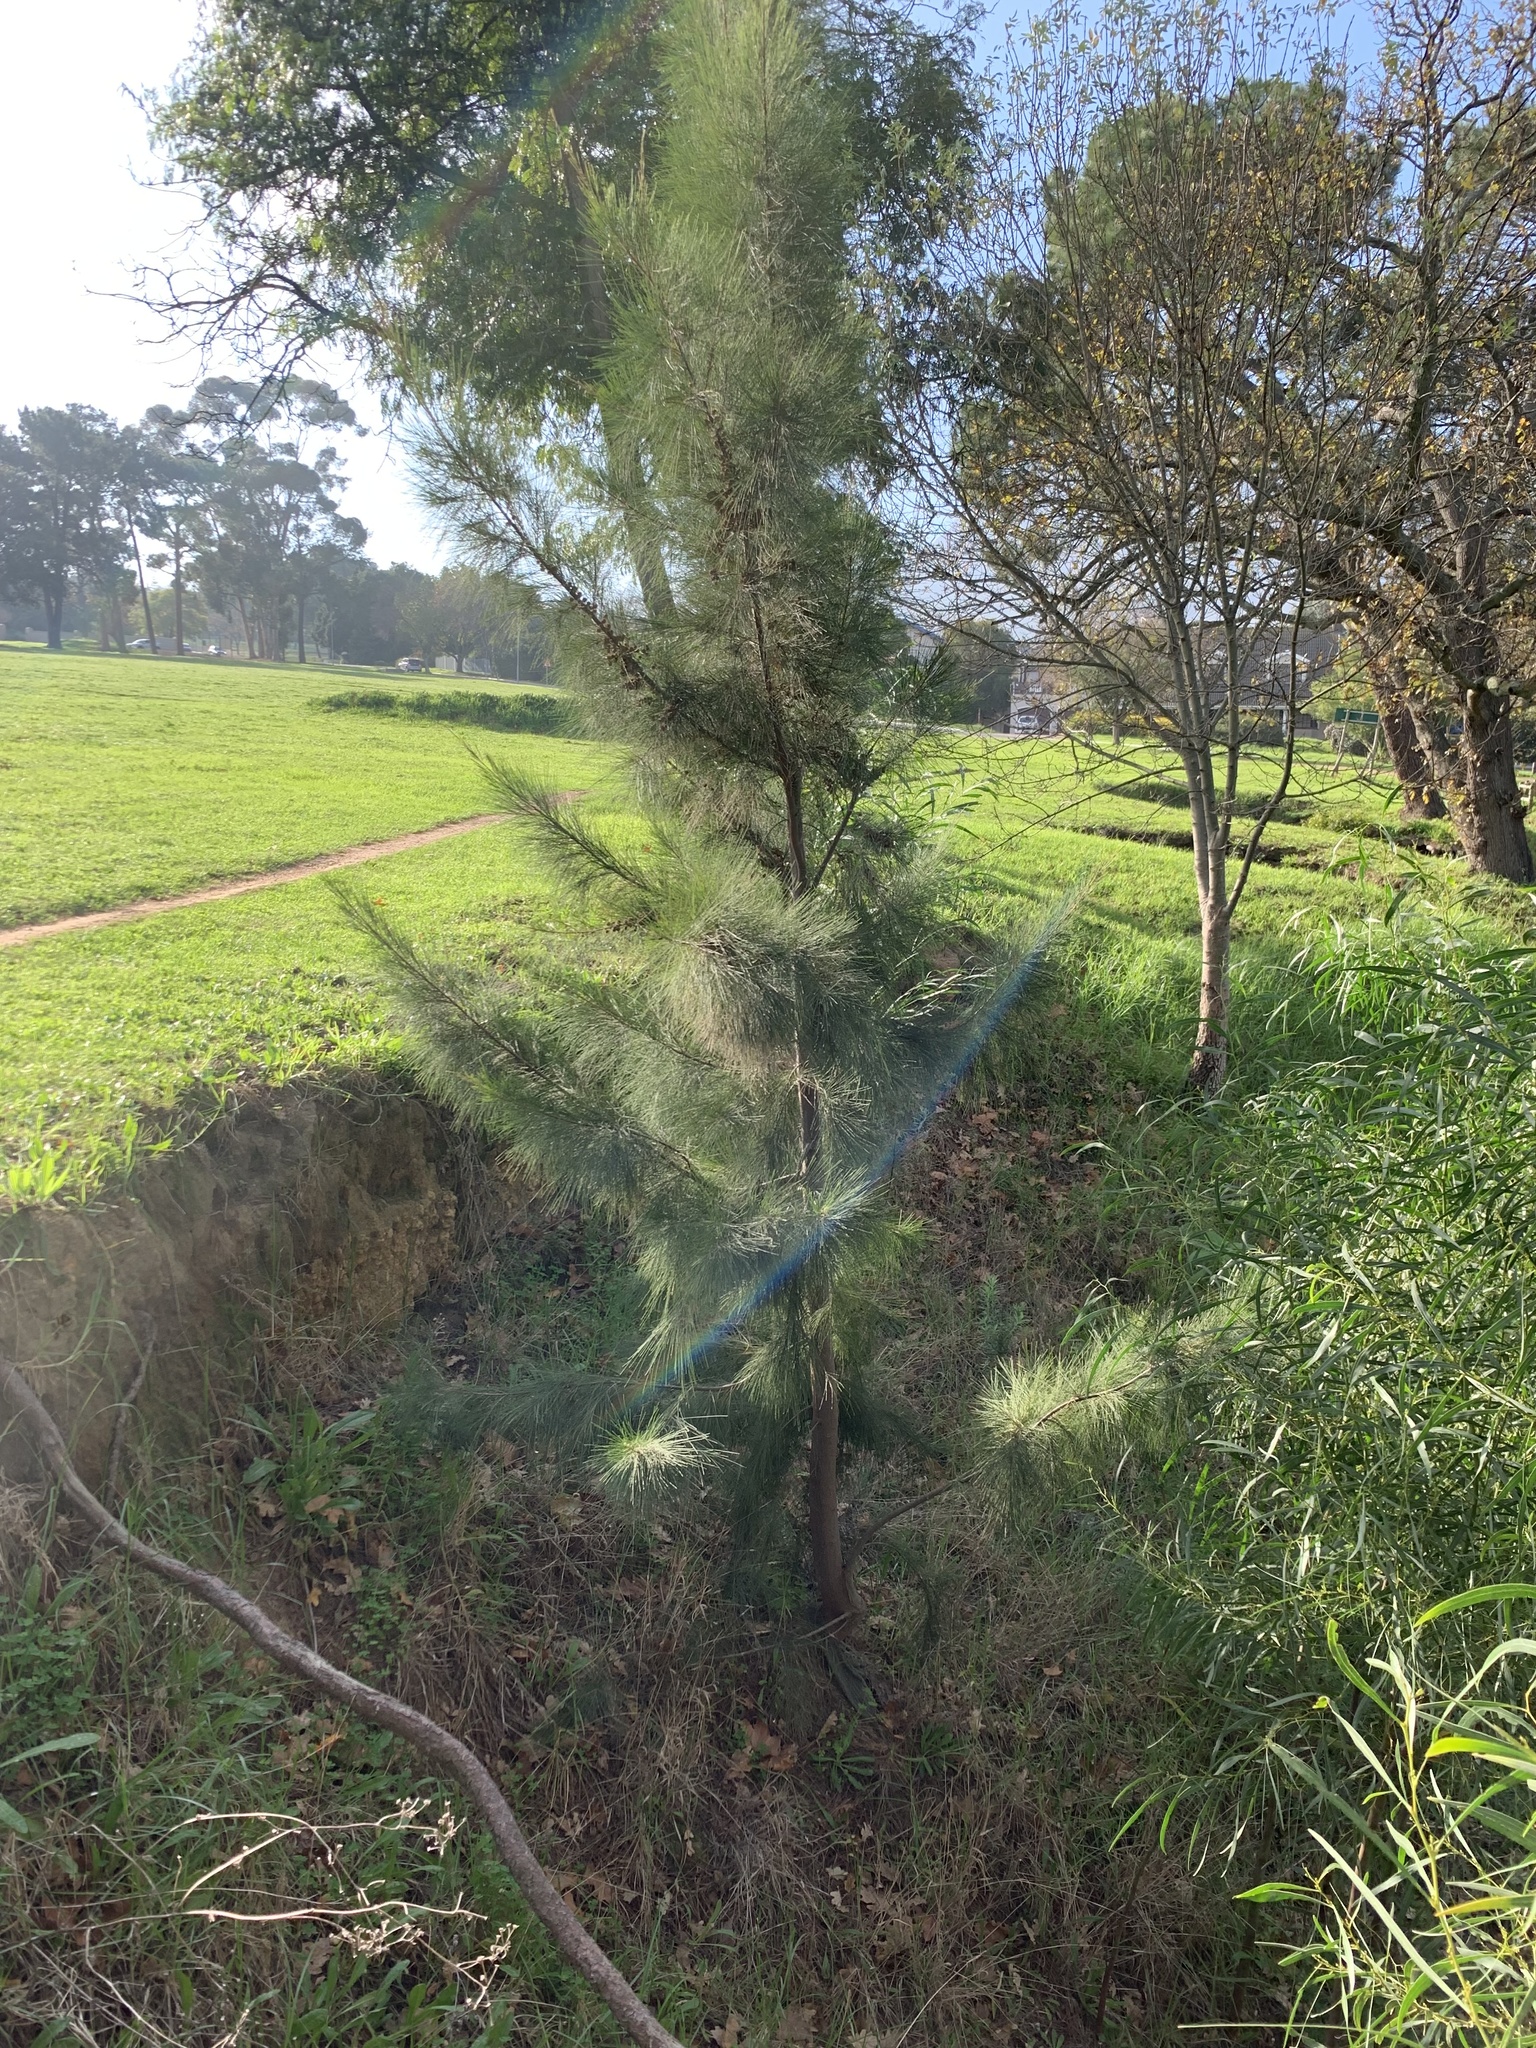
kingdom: Plantae
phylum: Tracheophyta
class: Magnoliopsida
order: Fagales
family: Casuarinaceae
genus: Casuarina
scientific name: Casuarina cunninghamiana
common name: River sheoak
